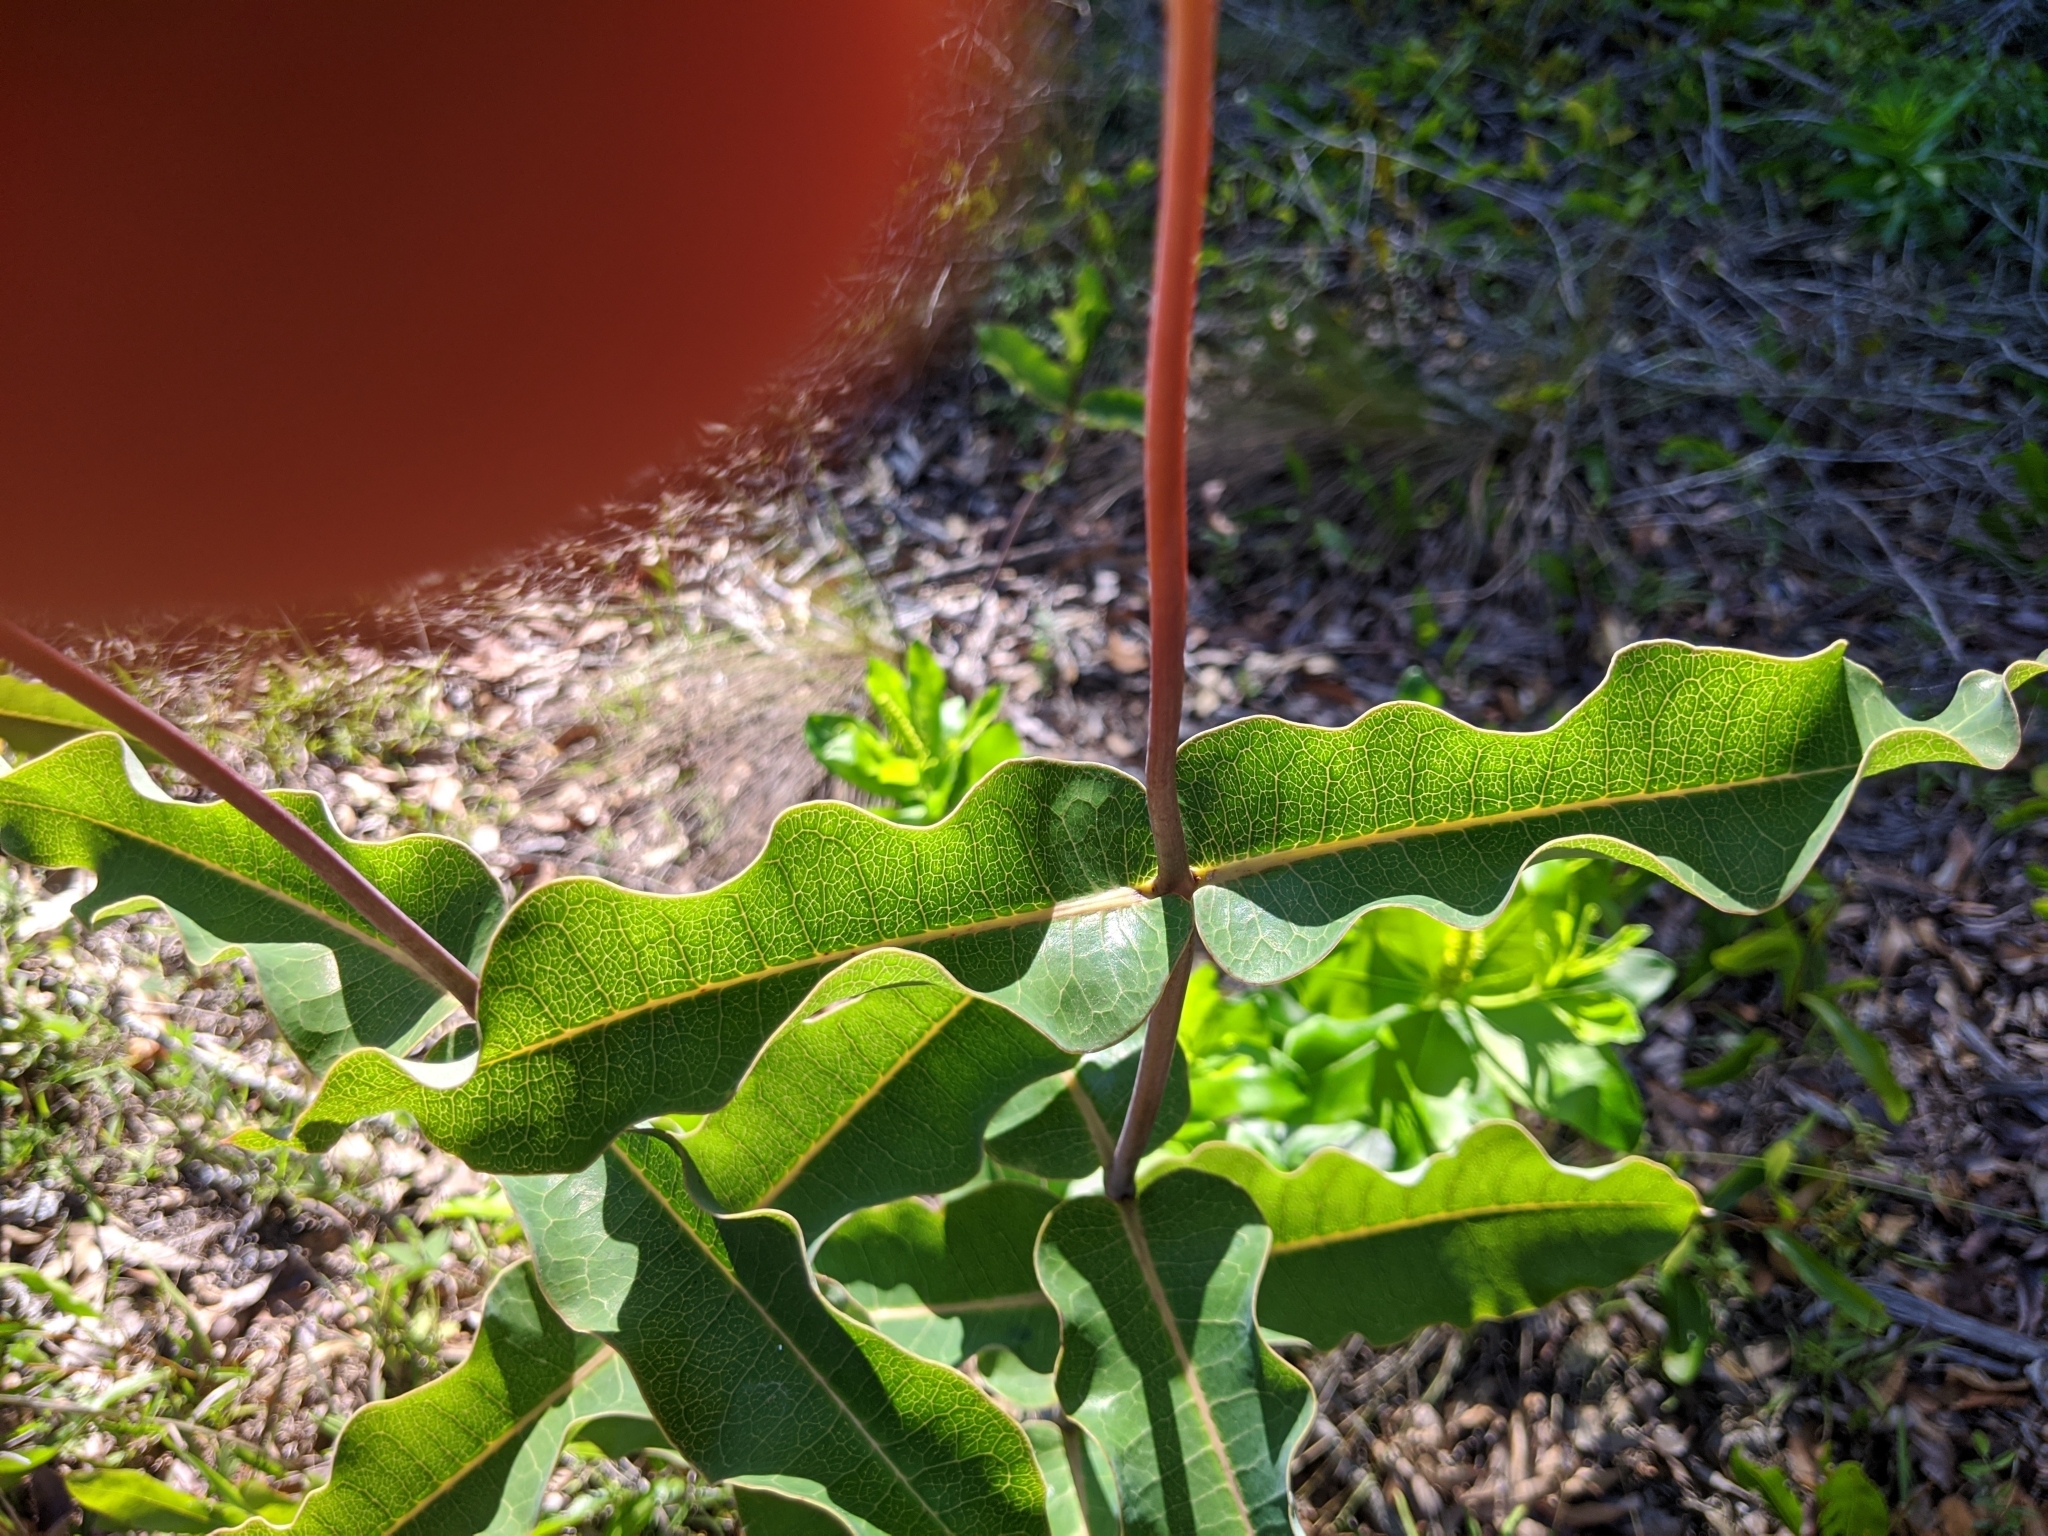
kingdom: Plantae
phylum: Tracheophyta
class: Magnoliopsida
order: Gentianales
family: Apocynaceae
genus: Asclepias
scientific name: Asclepias amplexicaulis
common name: Blunt-leaf milkweed
